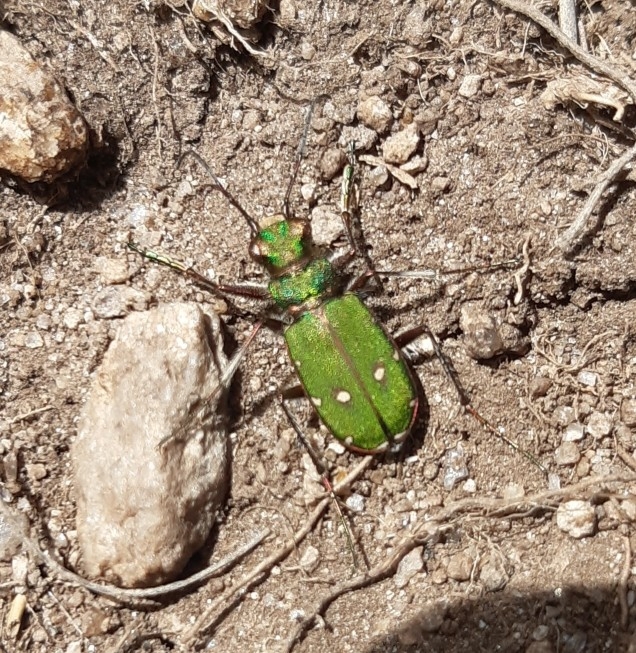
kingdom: Animalia
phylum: Arthropoda
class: Insecta
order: Coleoptera
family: Carabidae
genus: Cicindela
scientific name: Cicindela campestris
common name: Common tiger beetle
